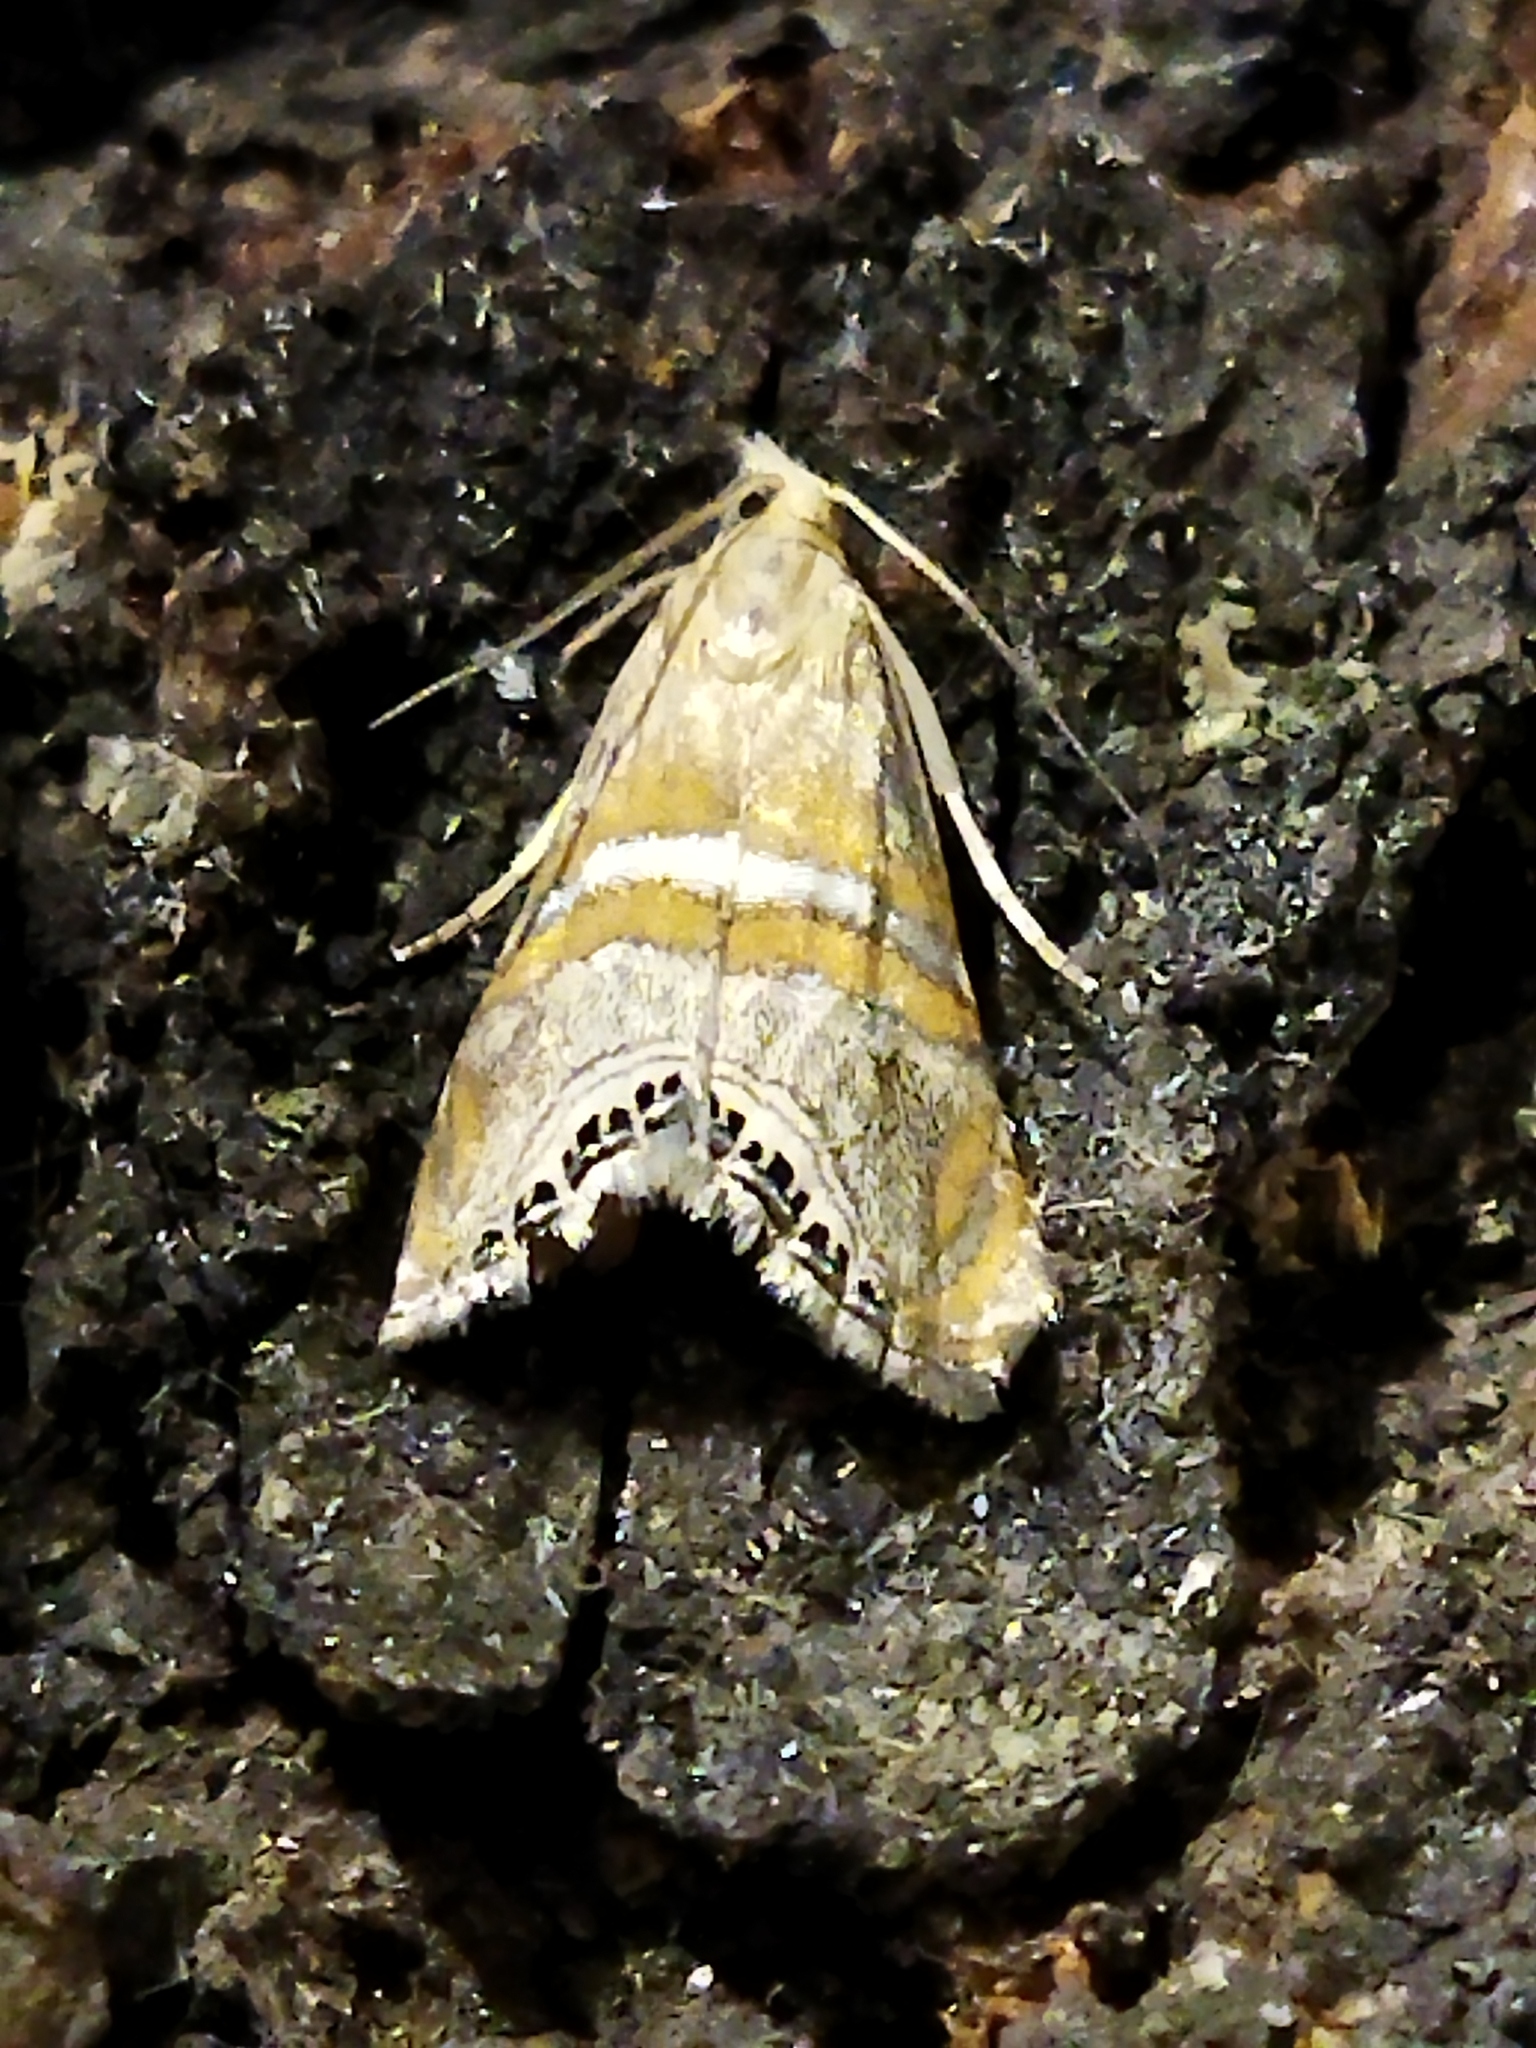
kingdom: Animalia
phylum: Arthropoda
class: Insecta
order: Lepidoptera
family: Crambidae
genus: Euchromius
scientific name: Euchromius bella
